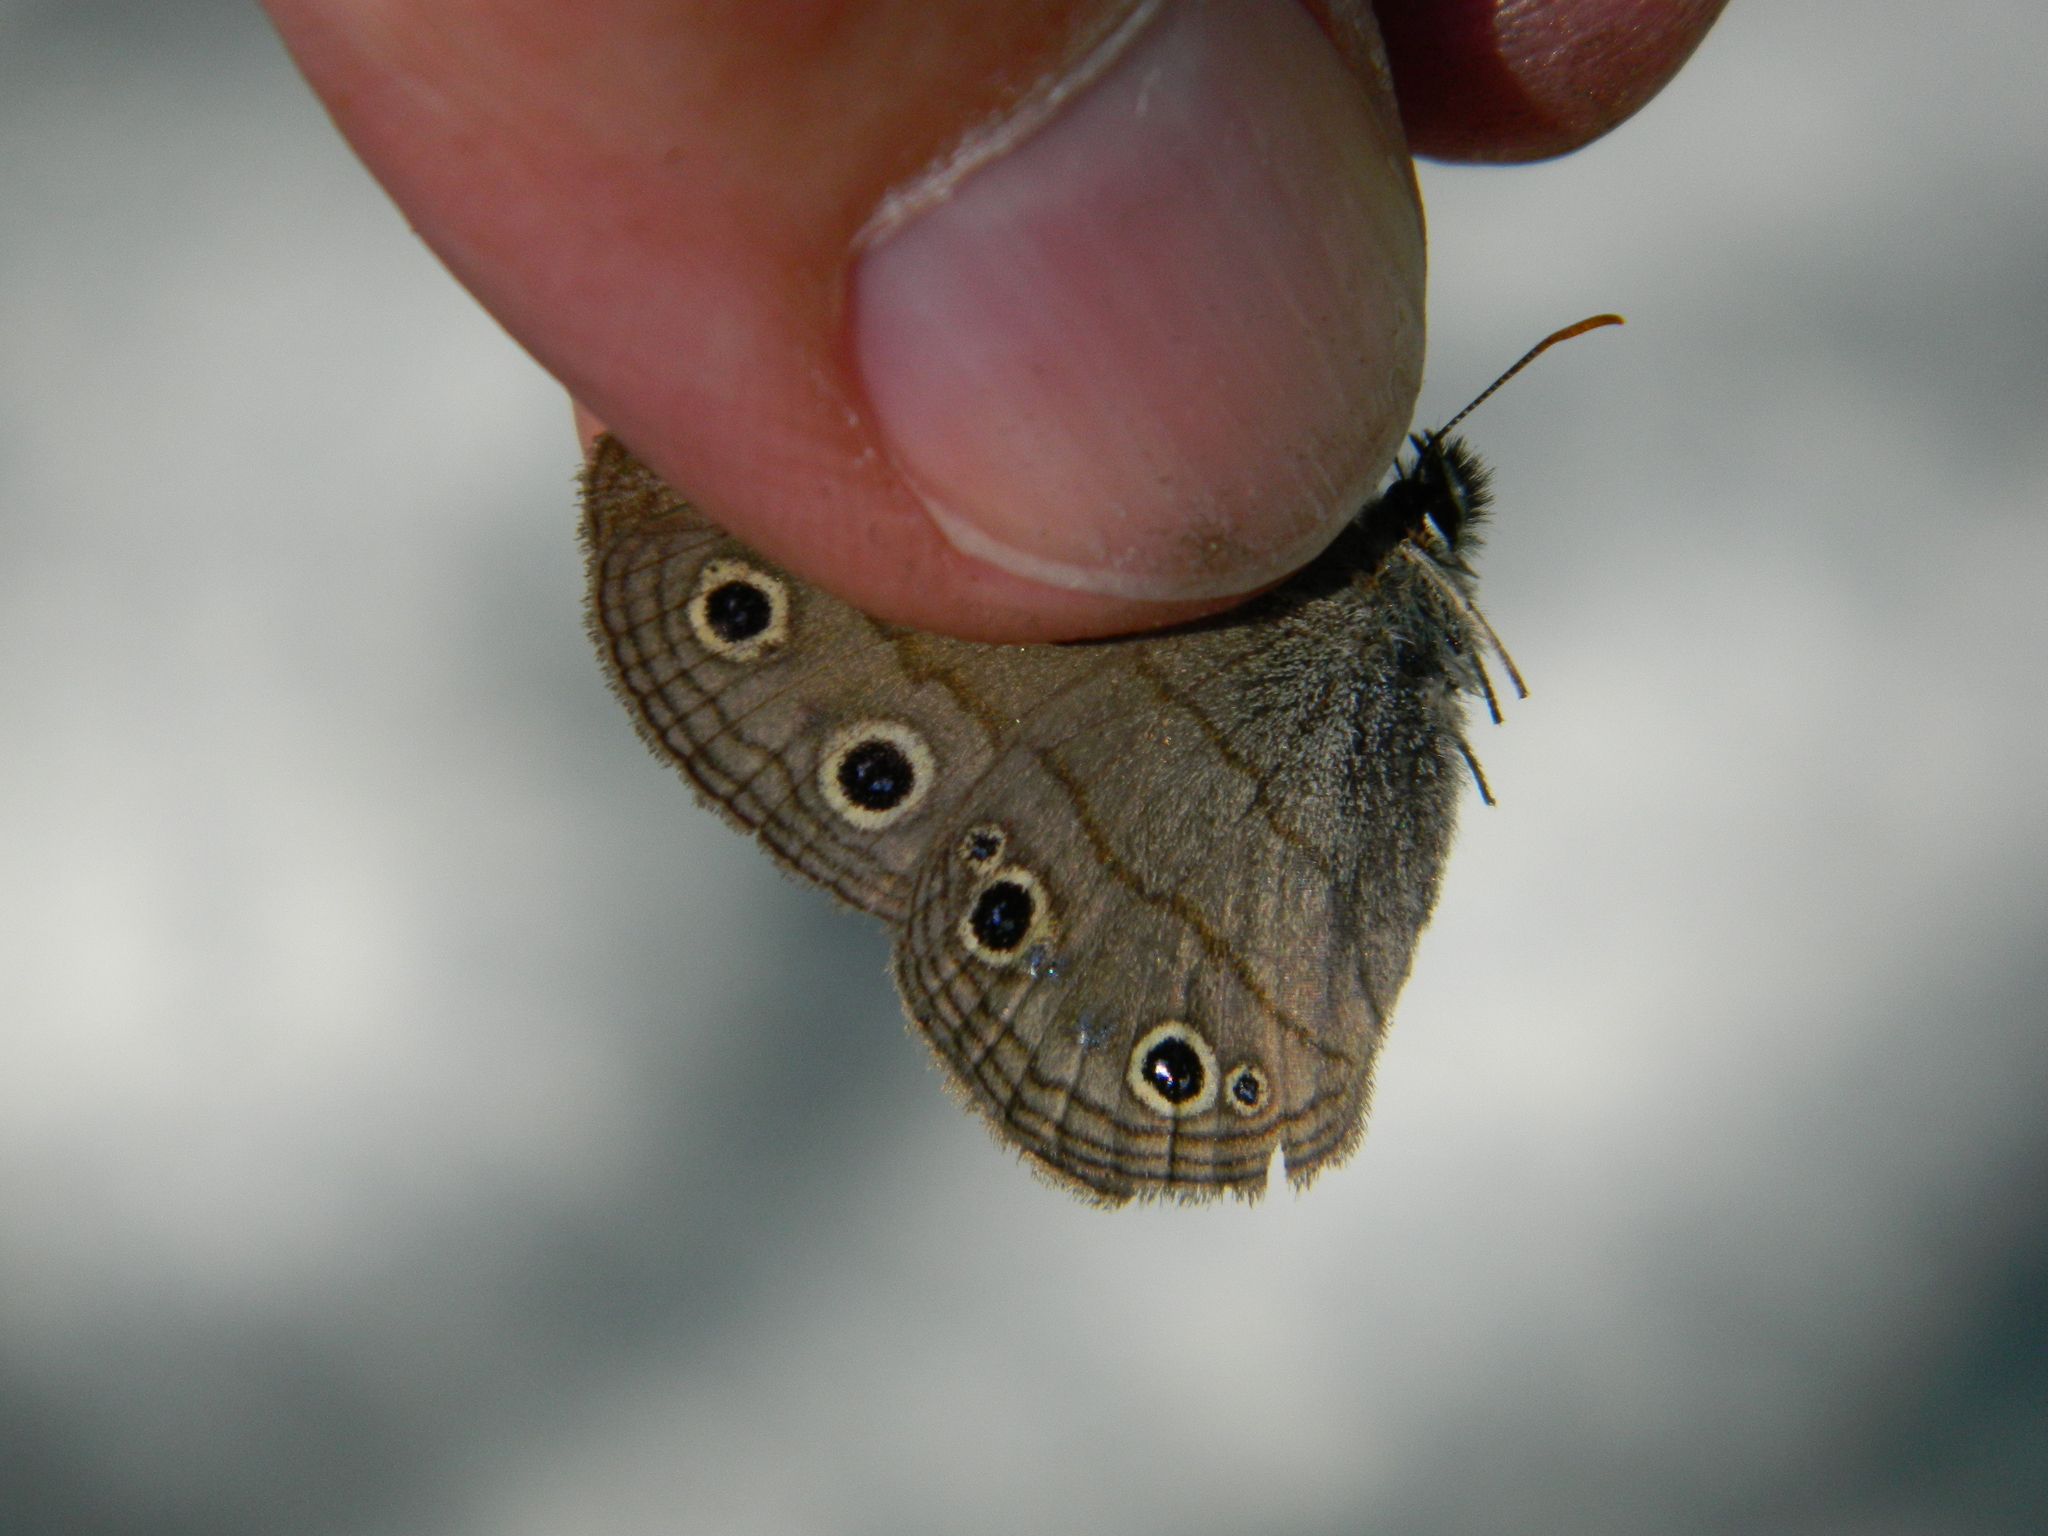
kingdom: Animalia
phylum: Arthropoda
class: Insecta
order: Lepidoptera
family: Nymphalidae
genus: Euptychia
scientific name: Euptychia cymela
